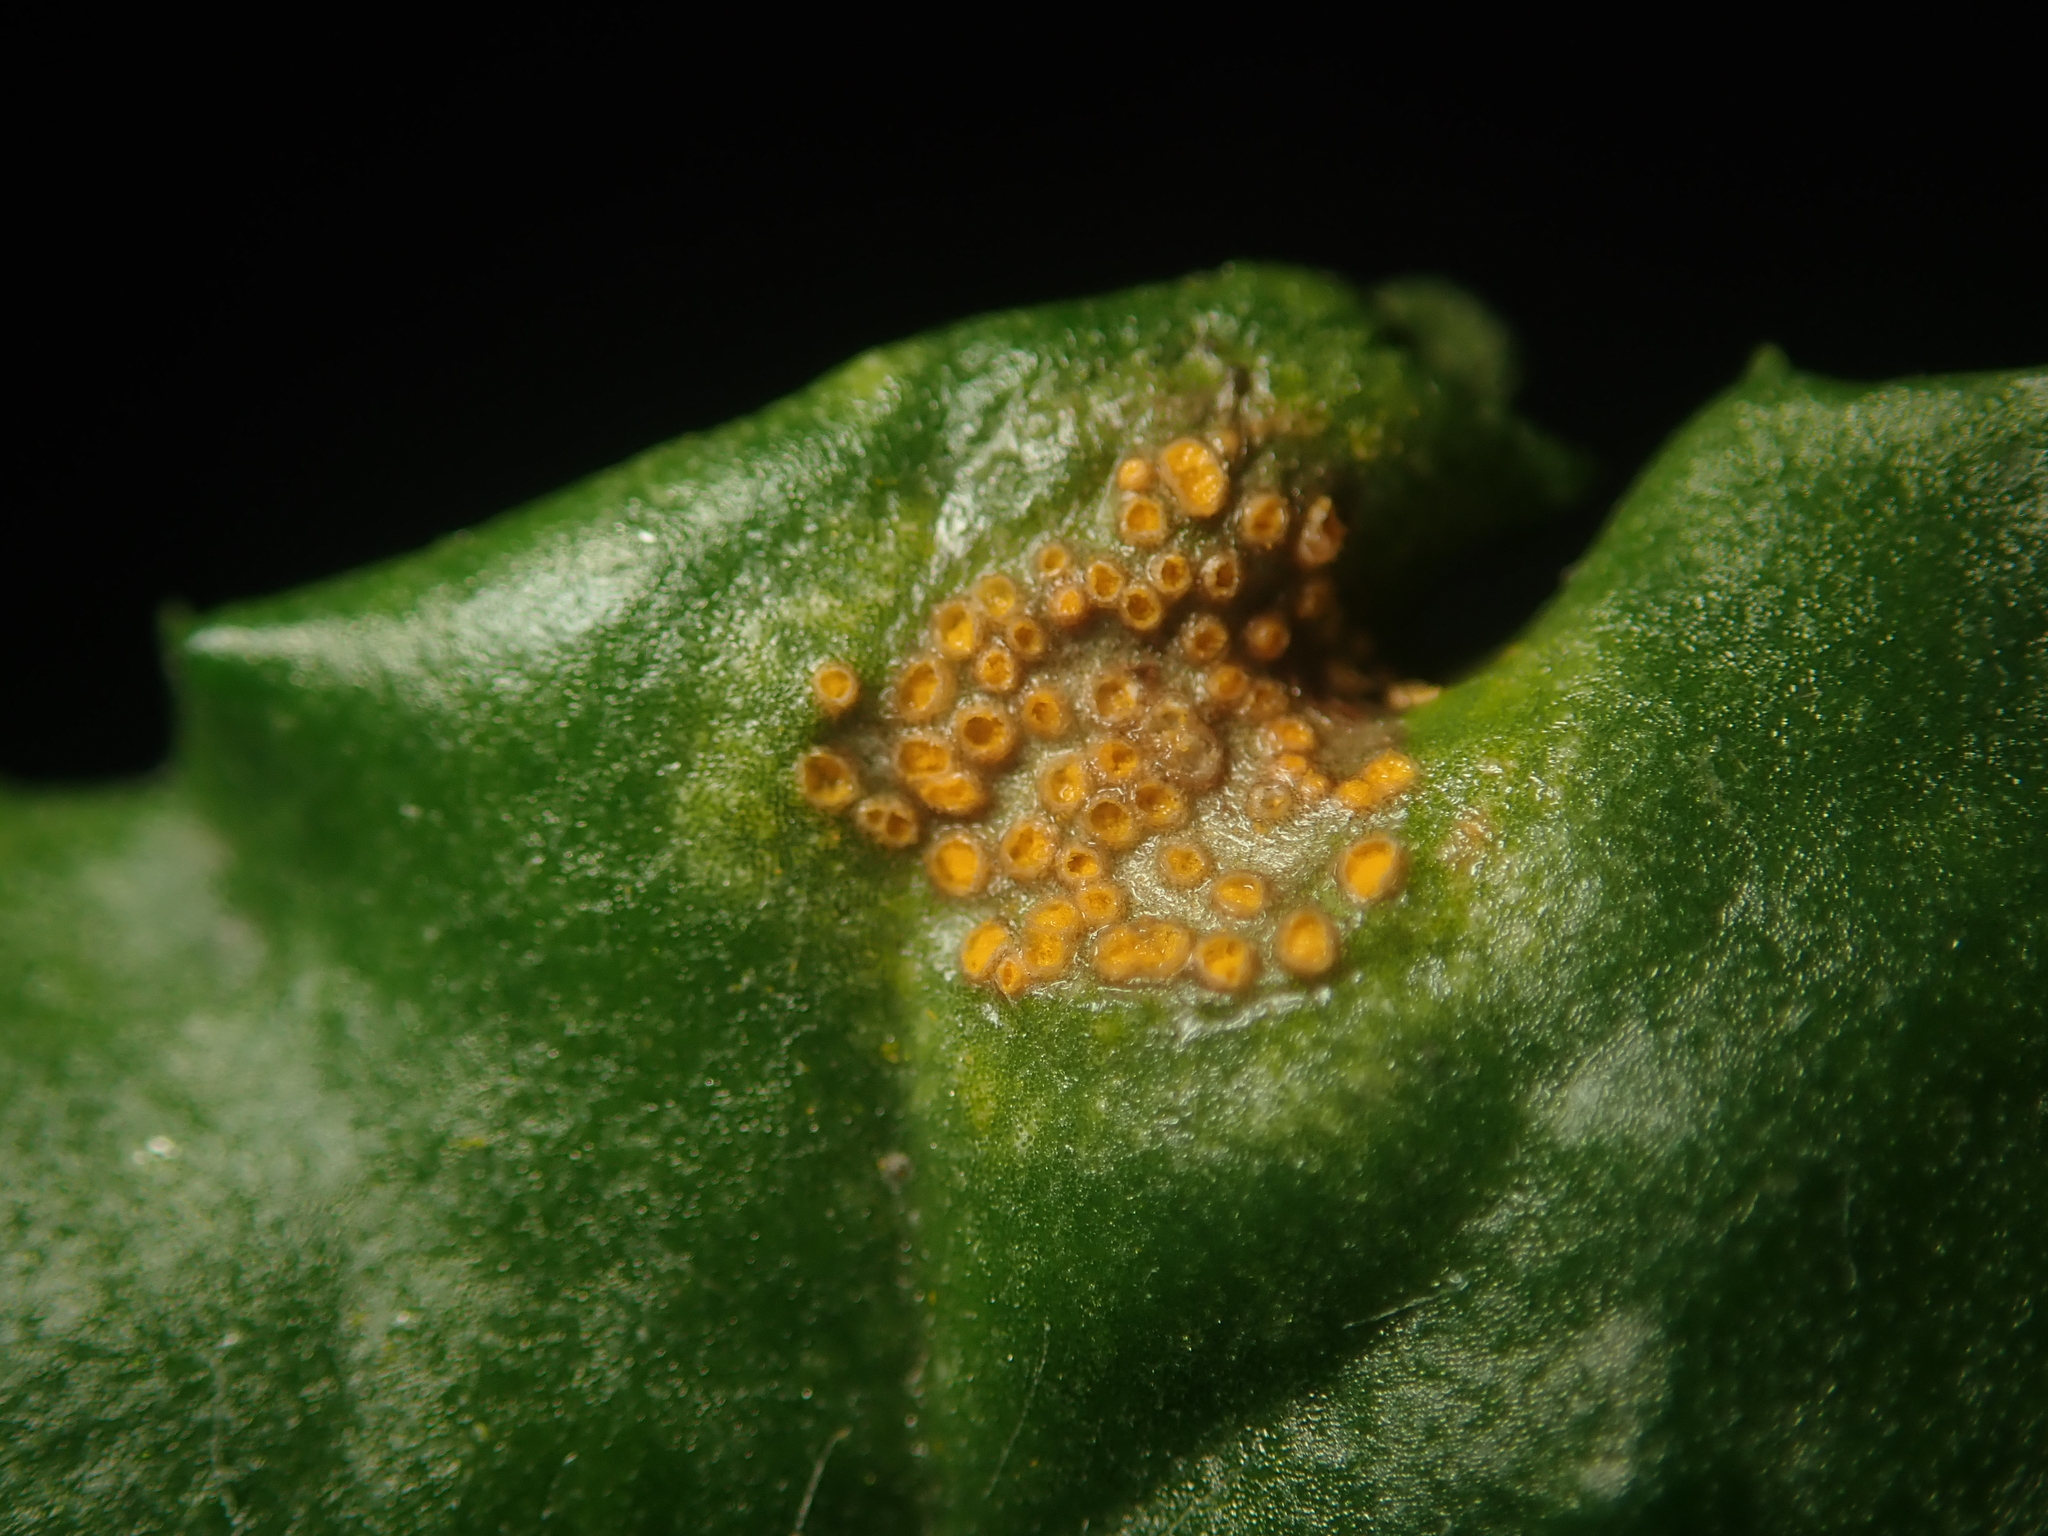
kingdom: Fungi
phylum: Basidiomycota
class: Pucciniomycetes
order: Pucciniales
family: Pucciniaceae
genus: Puccinia
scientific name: Puccinia lagenophorae
